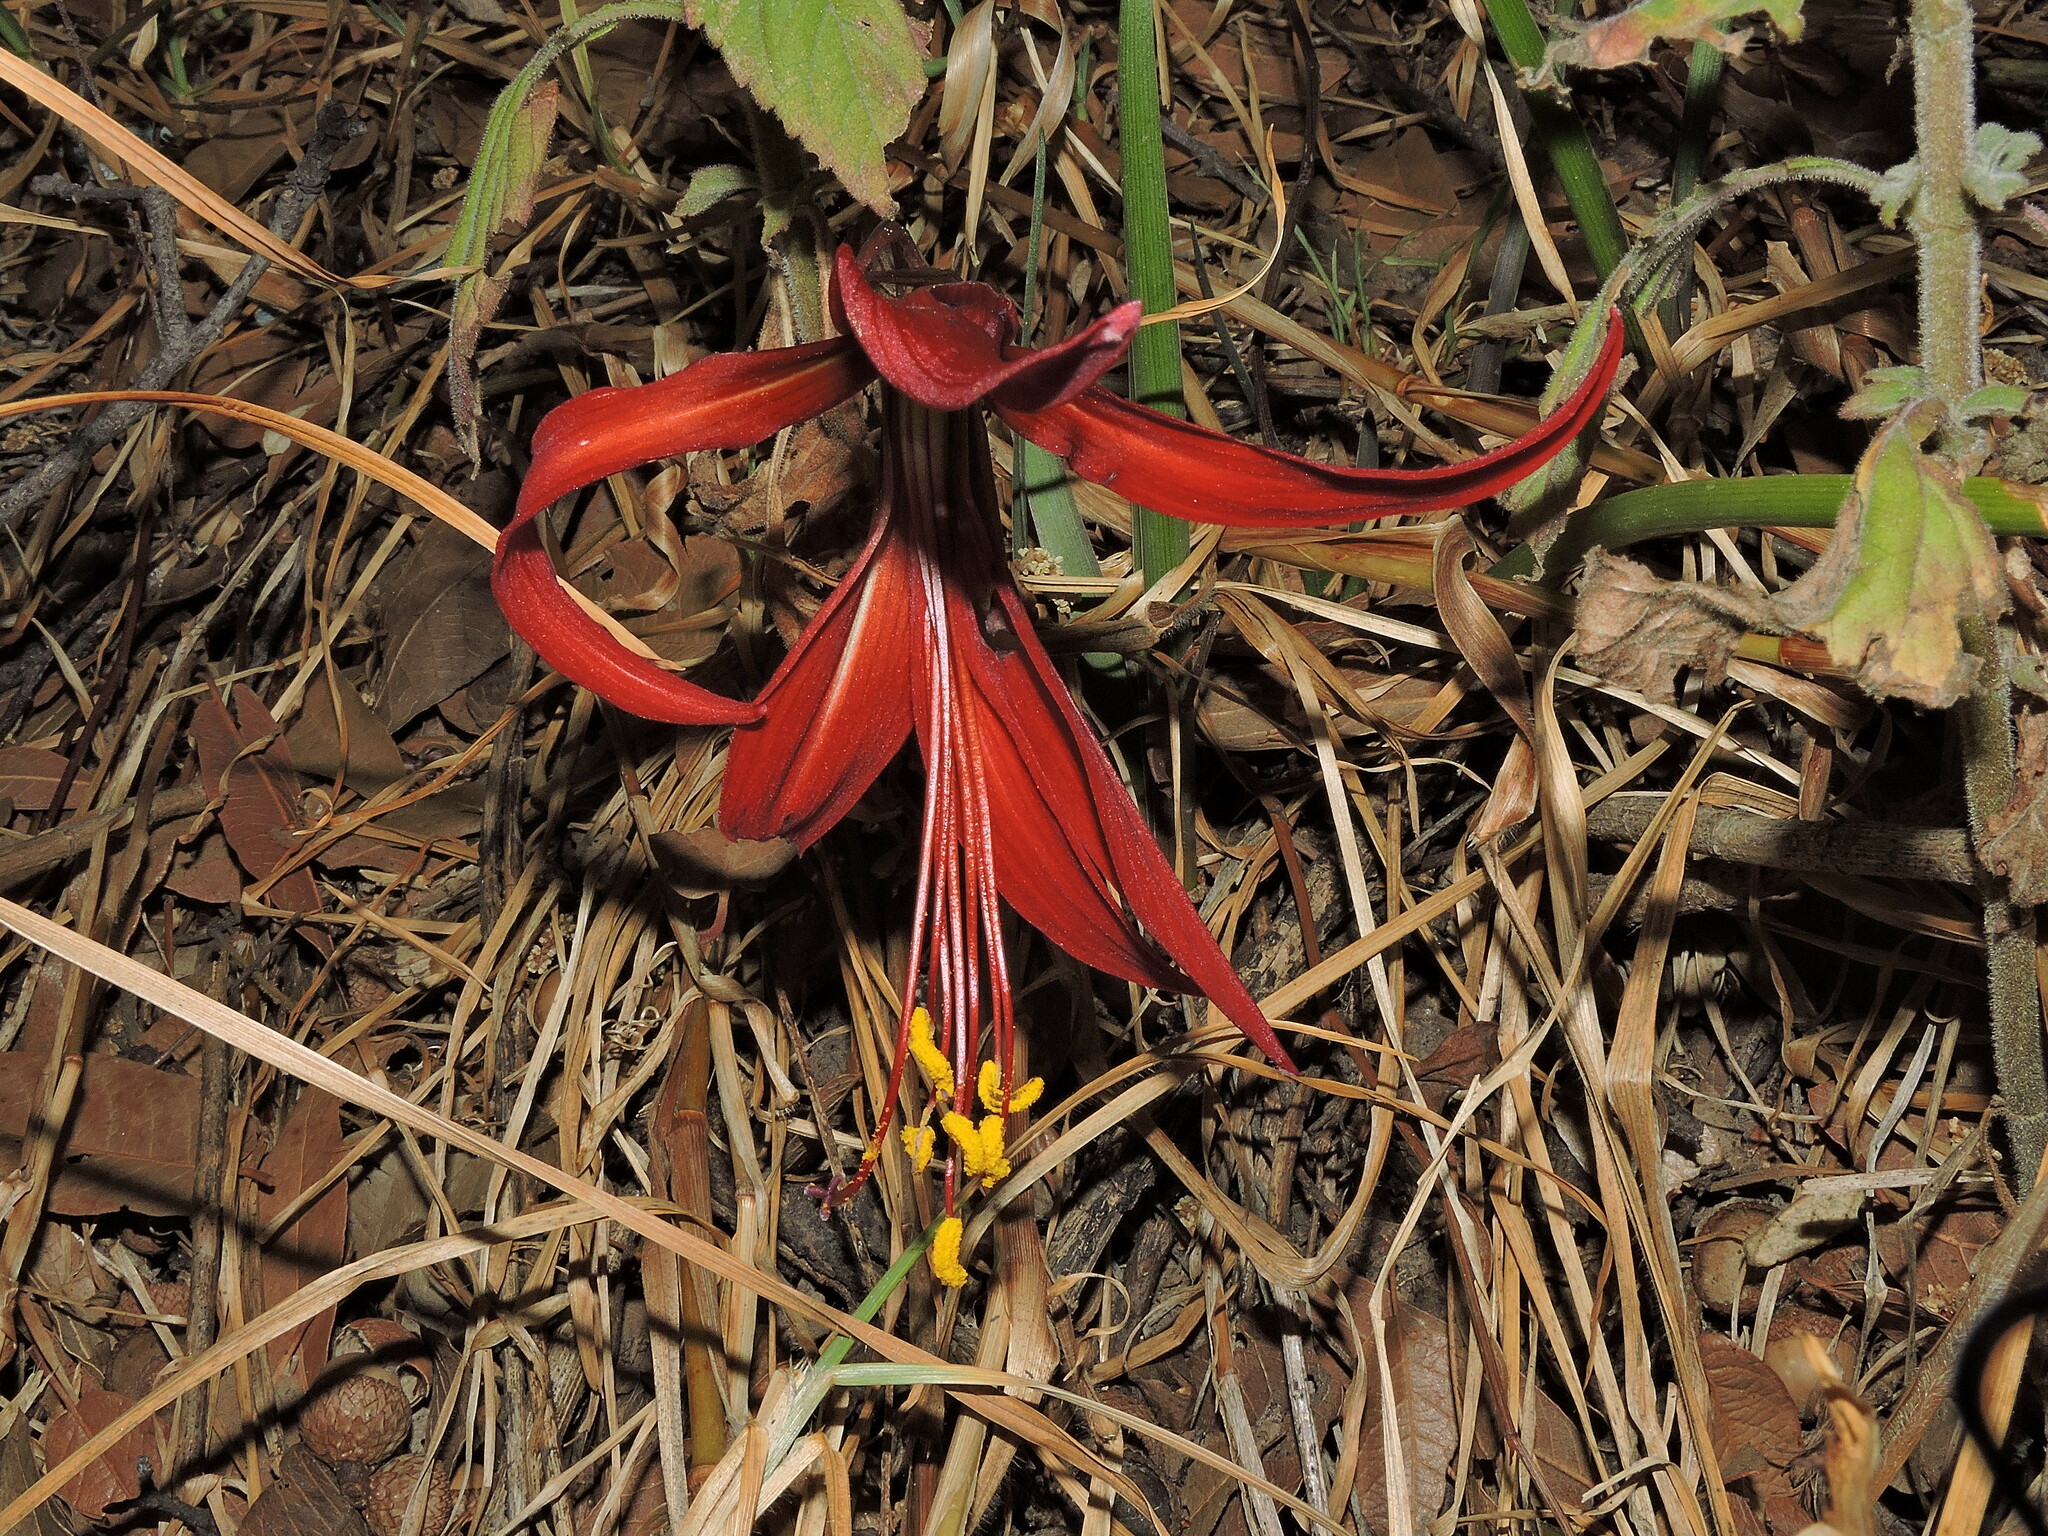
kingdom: Plantae
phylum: Tracheophyta
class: Liliopsida
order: Asparagales
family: Amaryllidaceae
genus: Sprekelia
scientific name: Sprekelia formosissima
